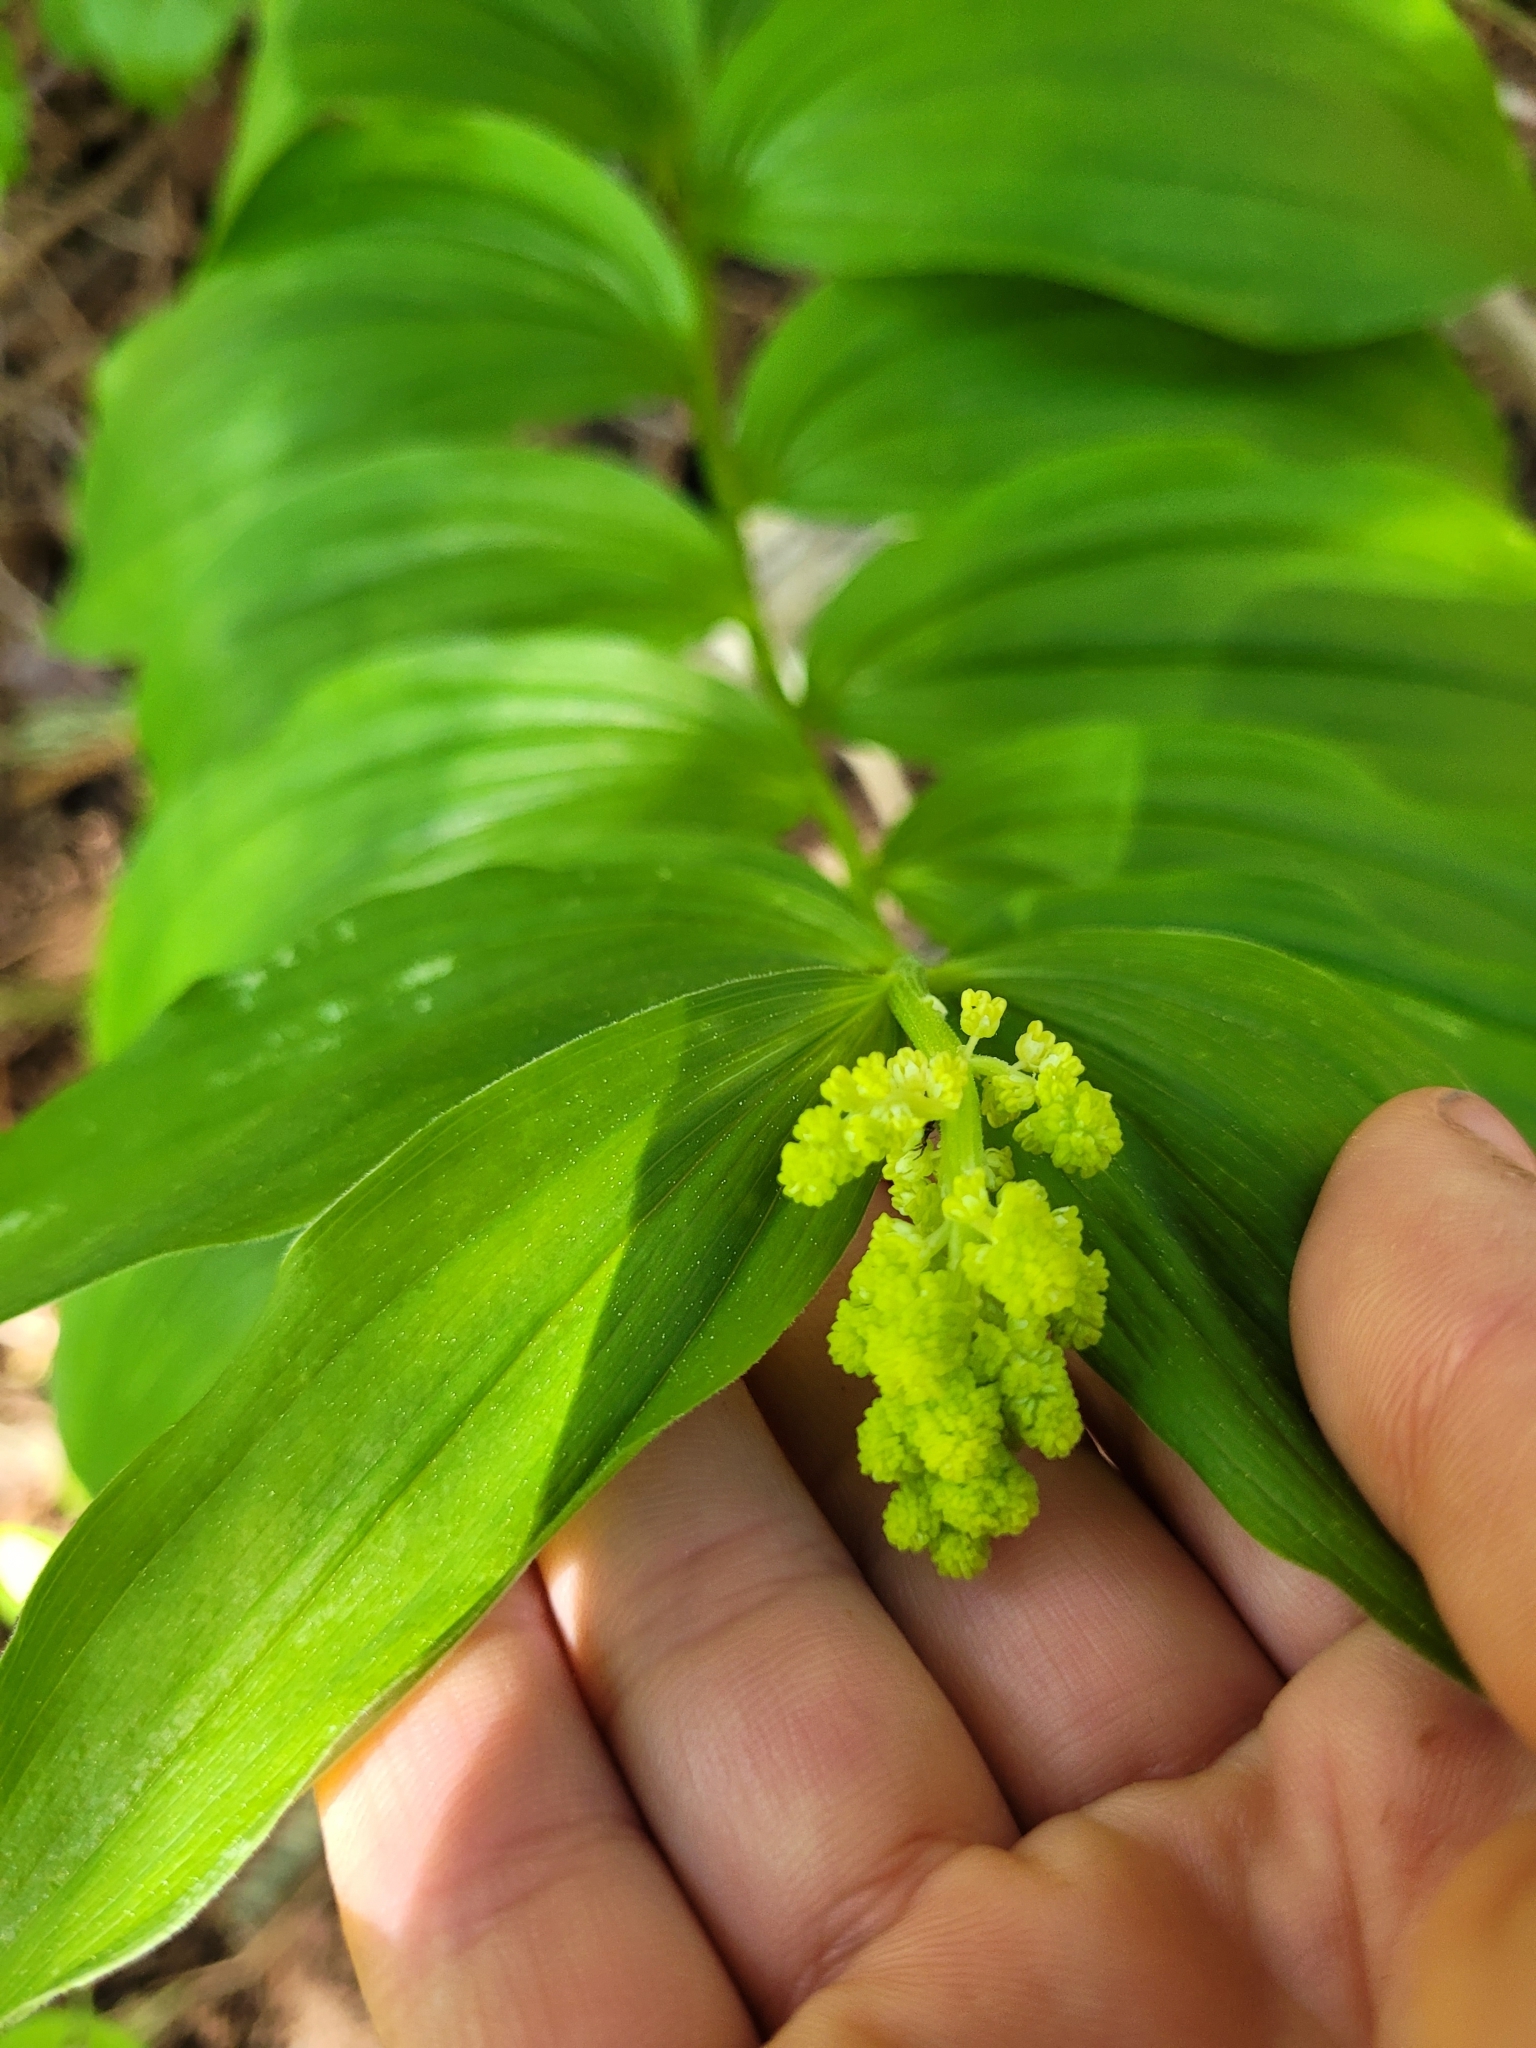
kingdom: Plantae
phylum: Tracheophyta
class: Liliopsida
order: Asparagales
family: Asparagaceae
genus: Maianthemum
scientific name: Maianthemum racemosum
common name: False spikenard
